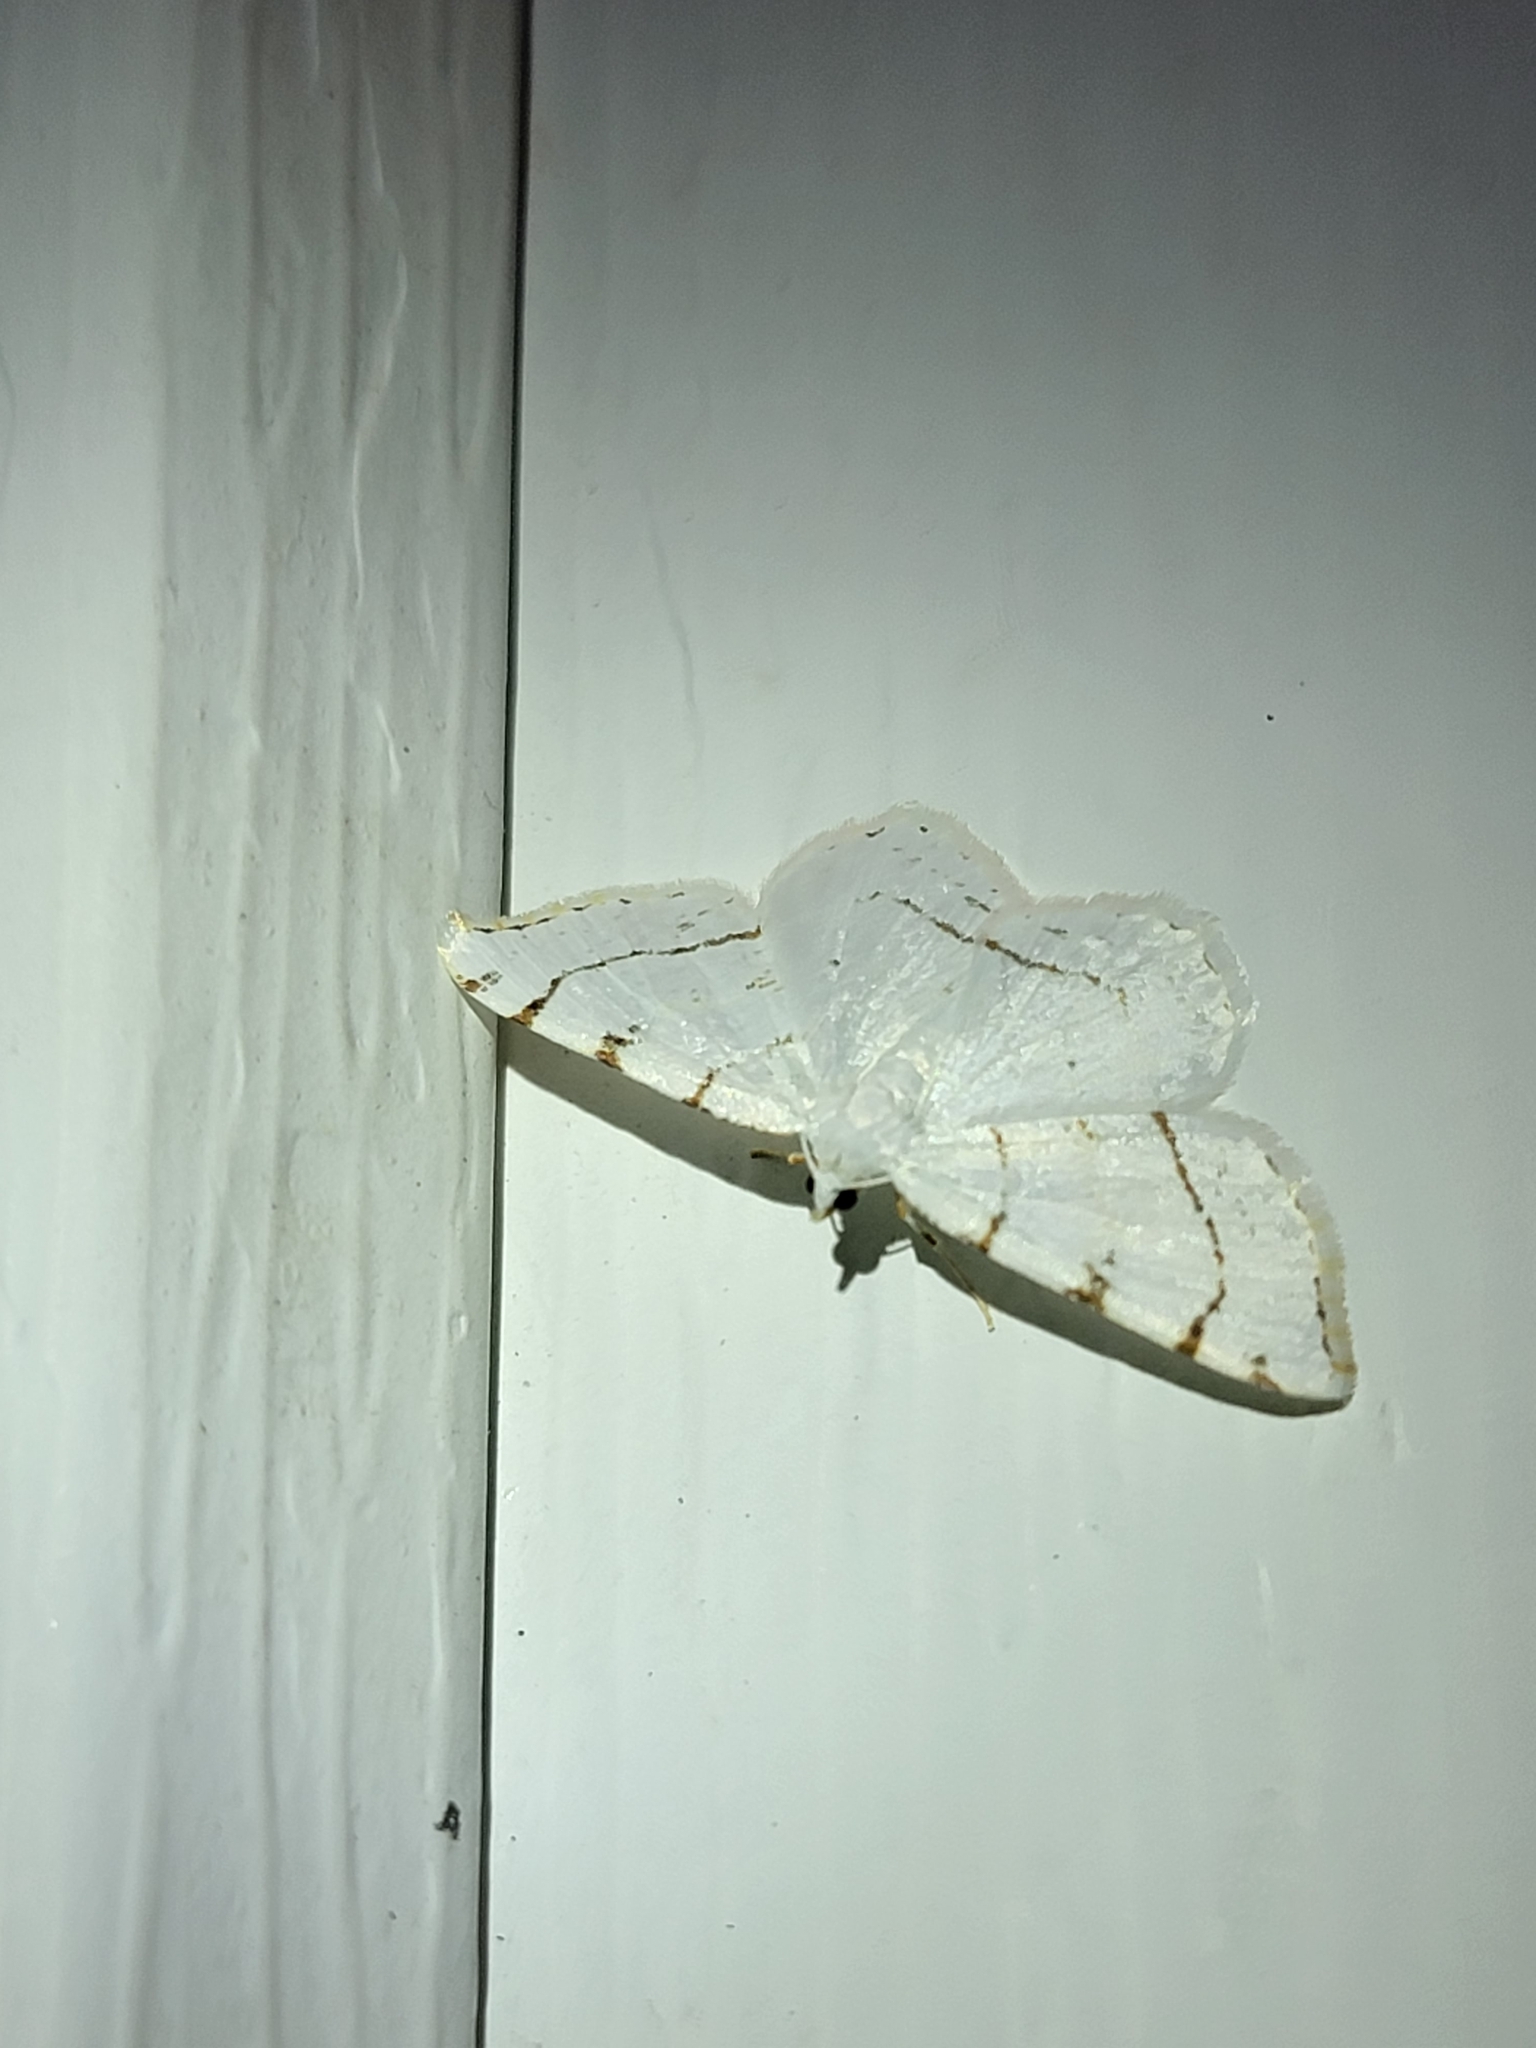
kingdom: Animalia
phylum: Arthropoda
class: Insecta
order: Lepidoptera
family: Geometridae
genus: Macaria
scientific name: Macaria pustularia
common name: Lesser maple spanworm moth
